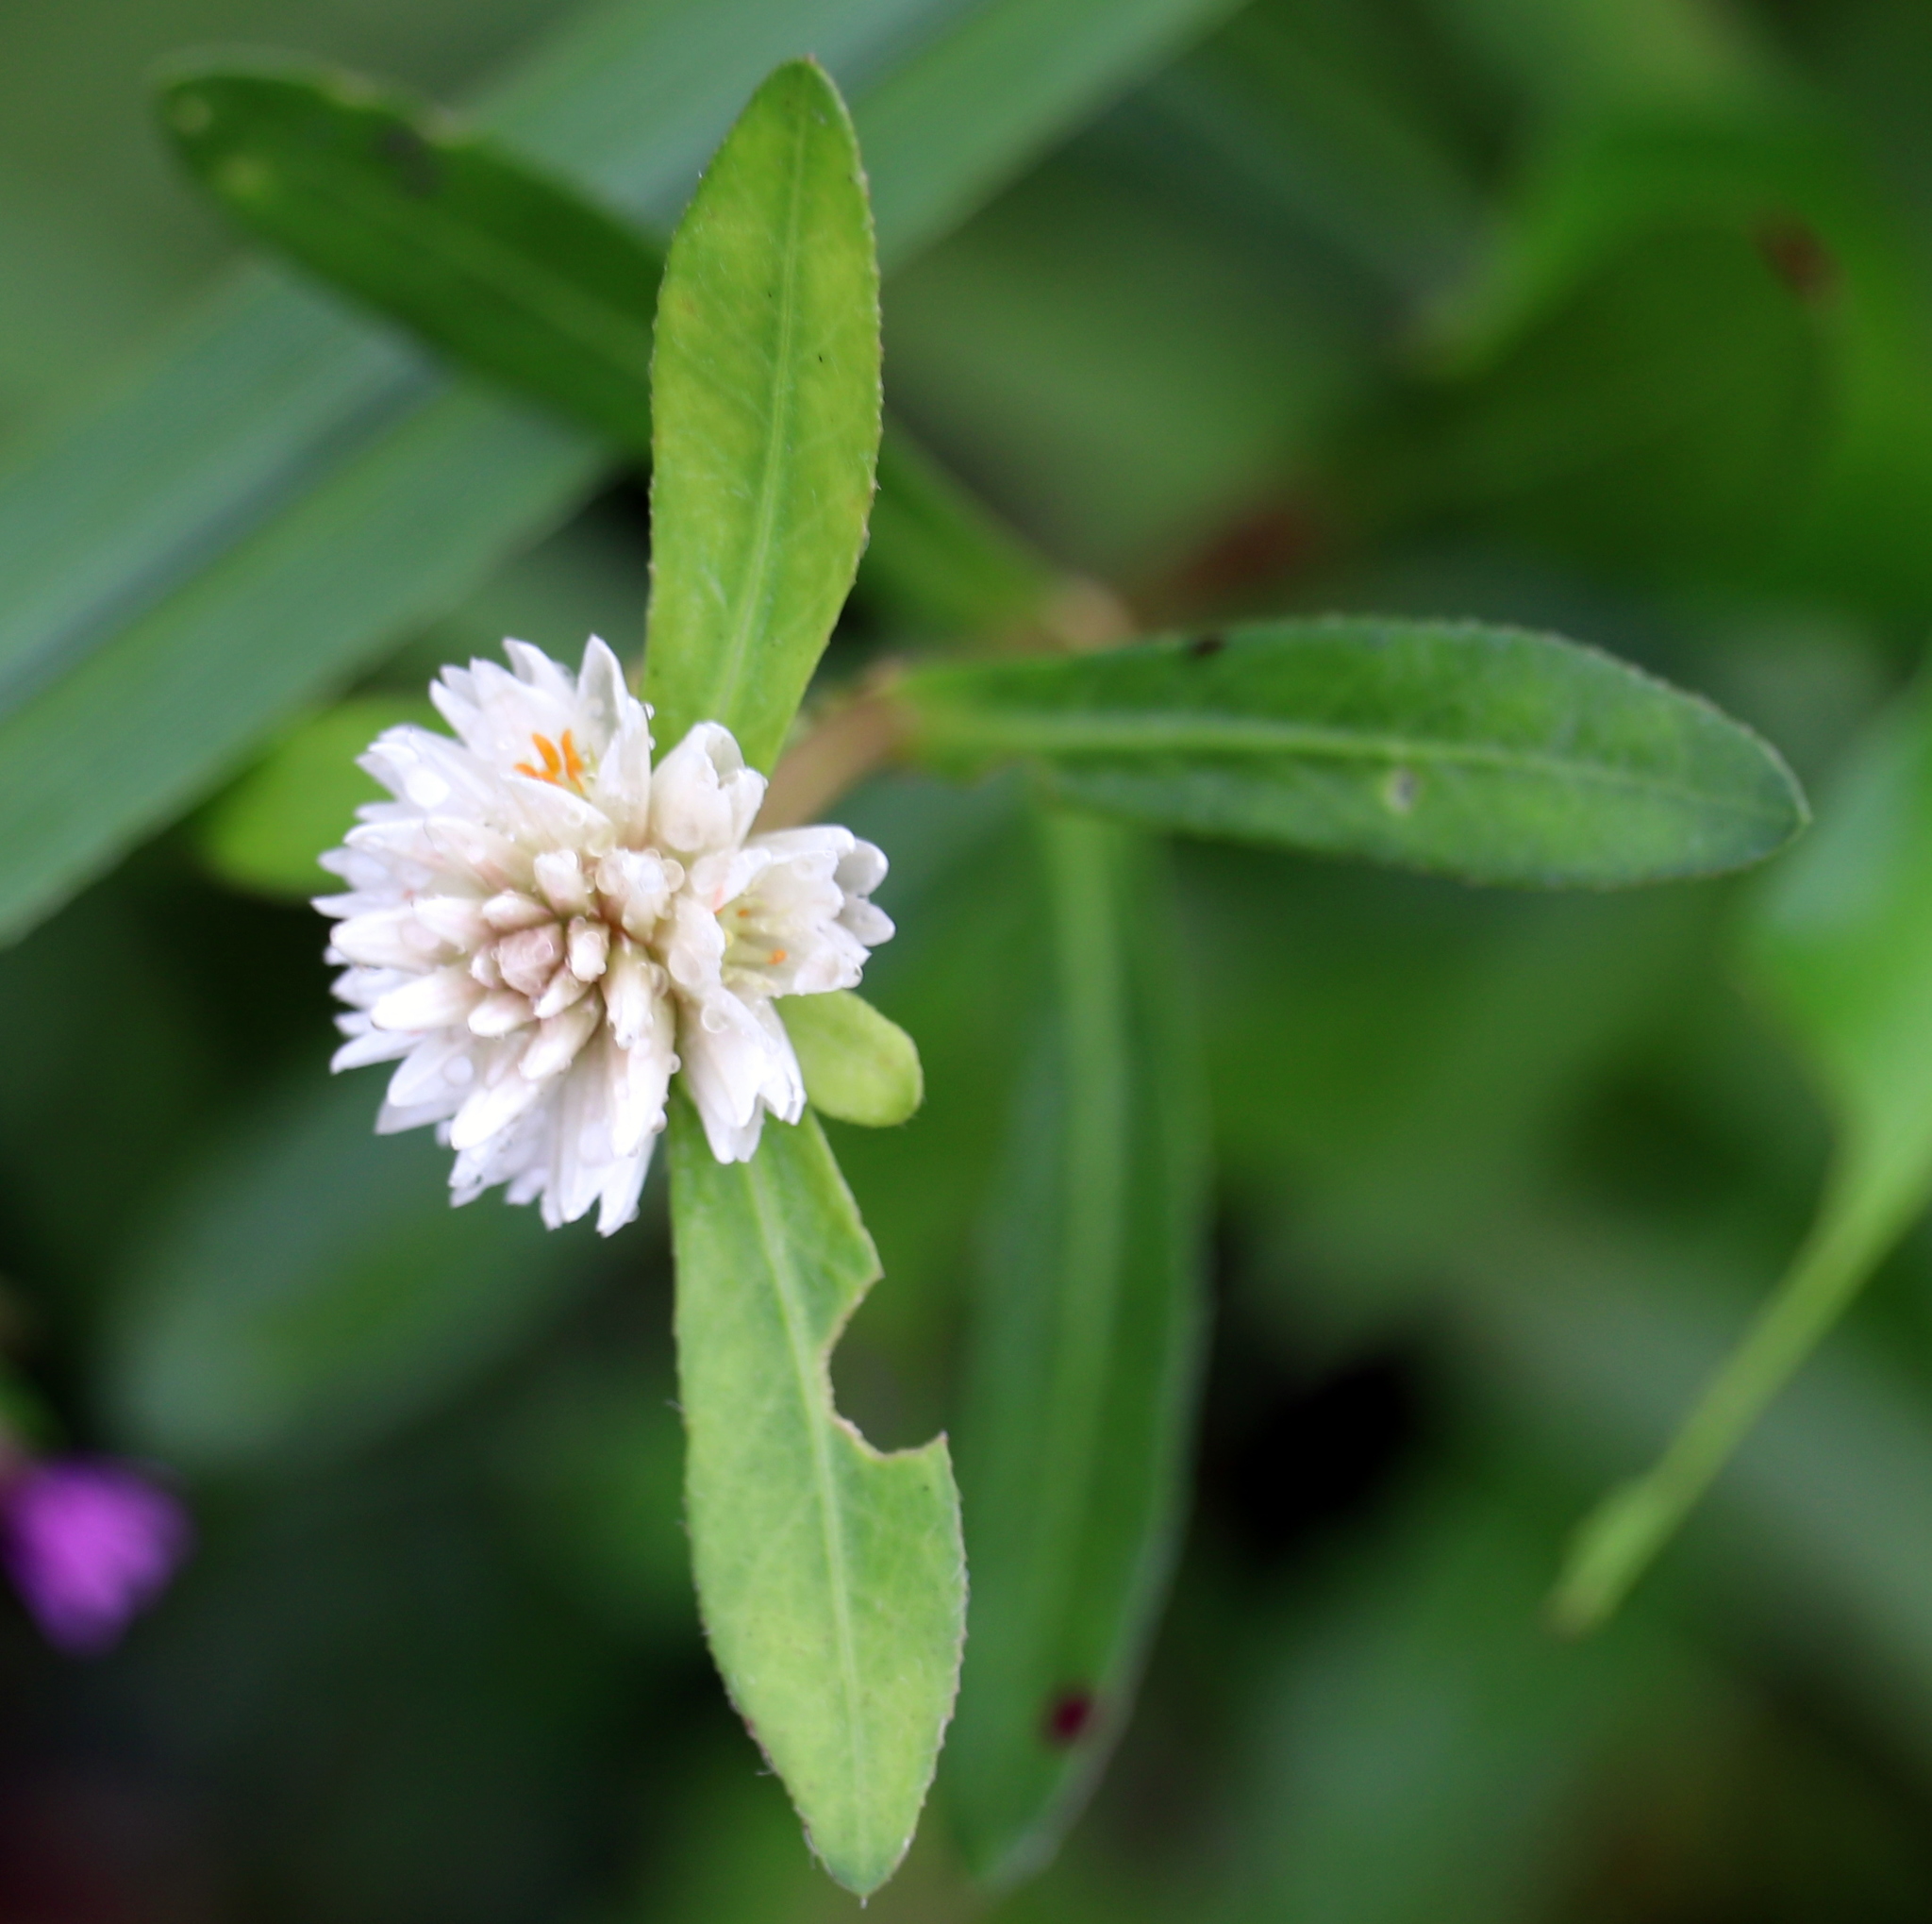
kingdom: Plantae
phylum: Tracheophyta
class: Magnoliopsida
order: Caryophyllales
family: Amaranthaceae
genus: Alternanthera
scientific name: Alternanthera philoxeroides
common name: Alligatorweed
